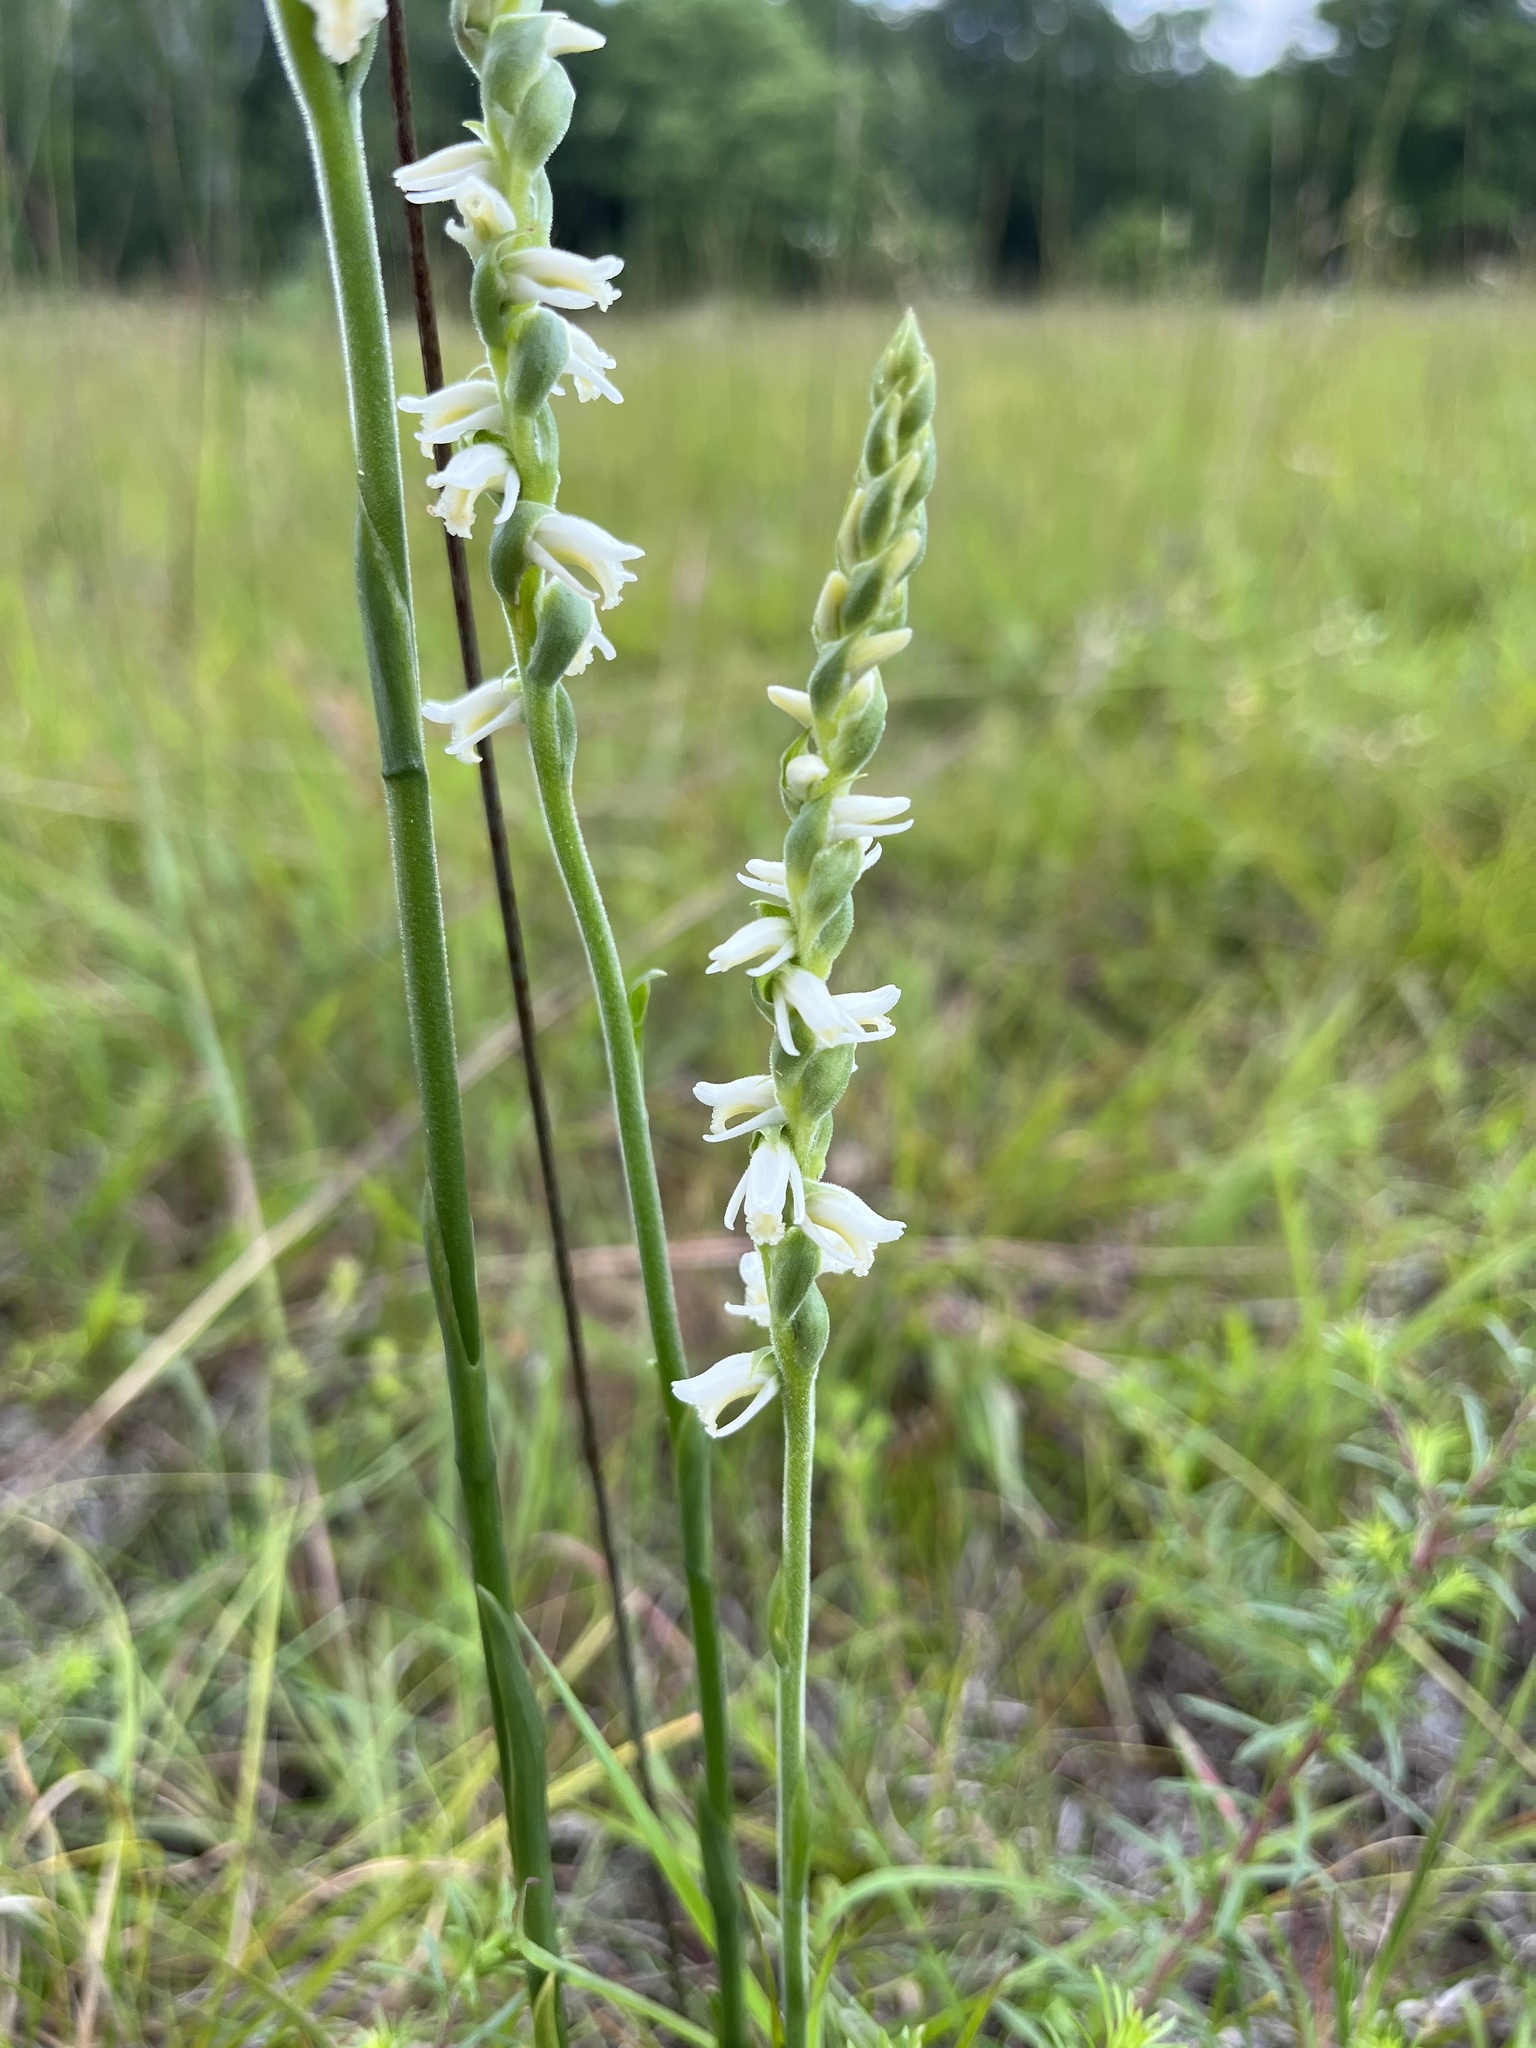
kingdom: Plantae
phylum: Tracheophyta
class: Liliopsida
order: Asparagales
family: Orchidaceae
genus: Spiranthes
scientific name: Spiranthes vernalis
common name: Spring ladies'-tresses
